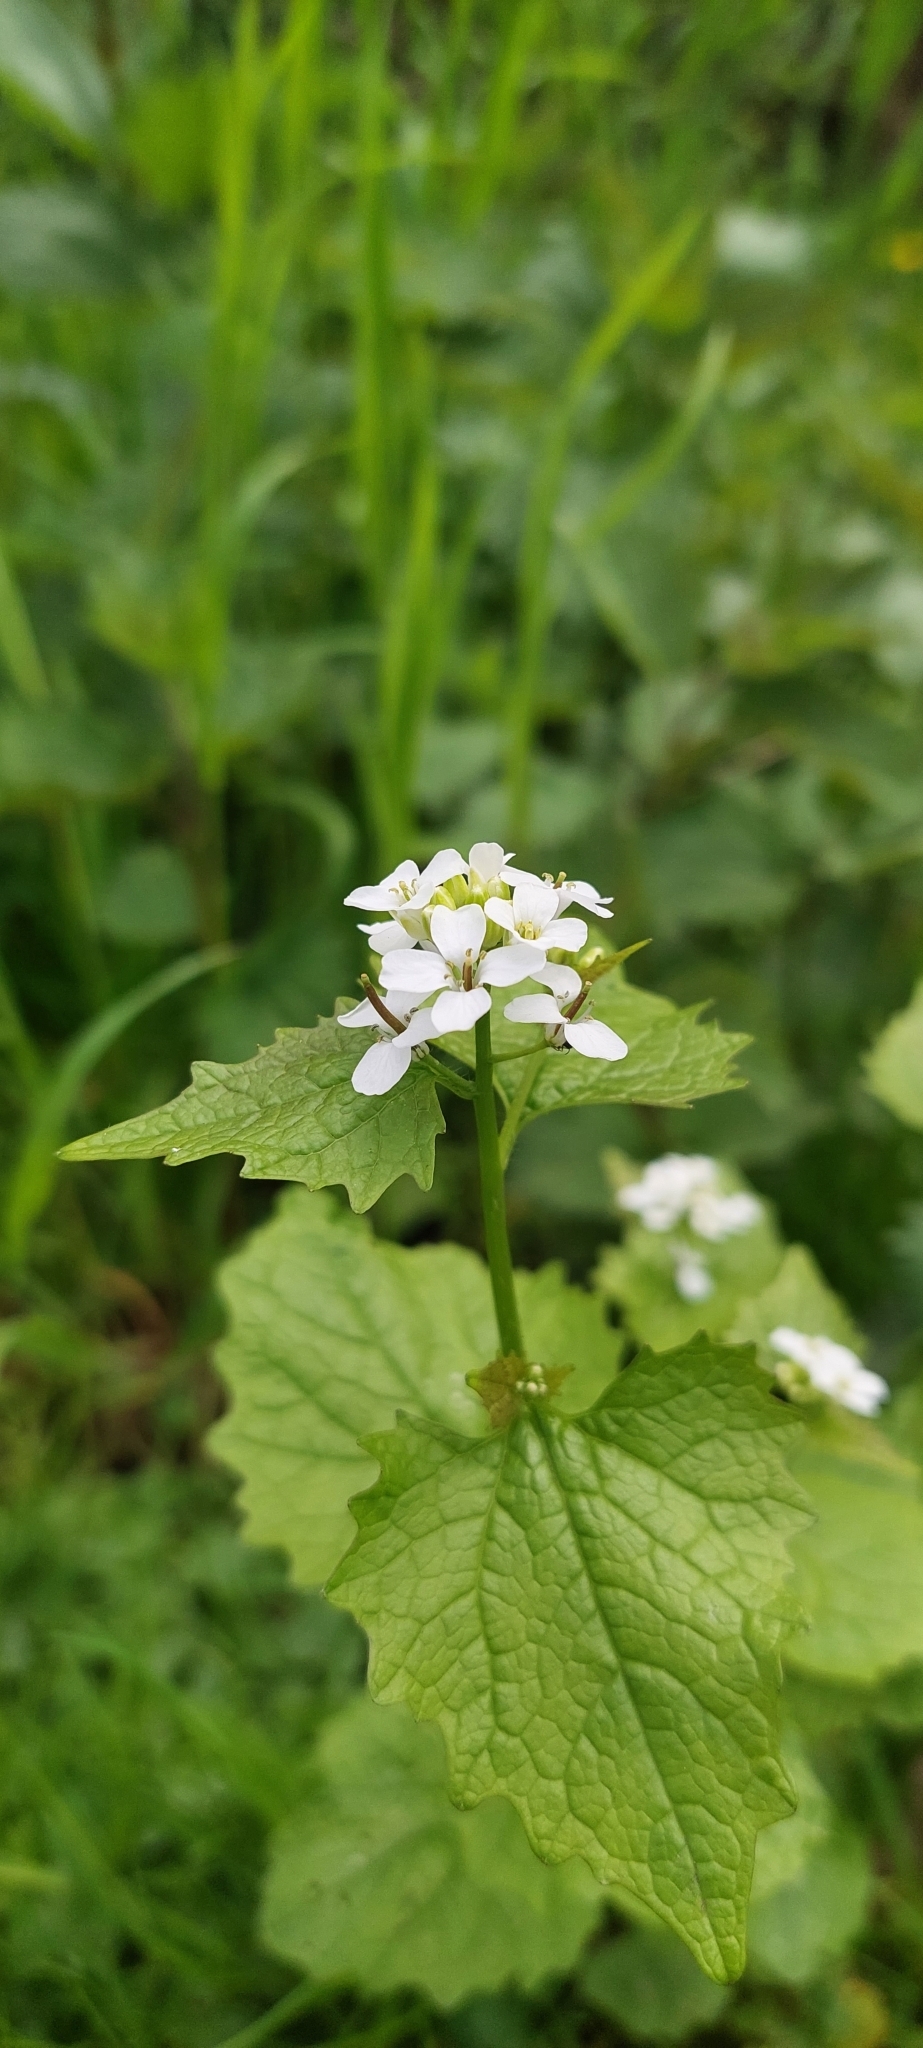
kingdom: Plantae
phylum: Tracheophyta
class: Magnoliopsida
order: Brassicales
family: Brassicaceae
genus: Alliaria
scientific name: Alliaria petiolata
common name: Garlic mustard
